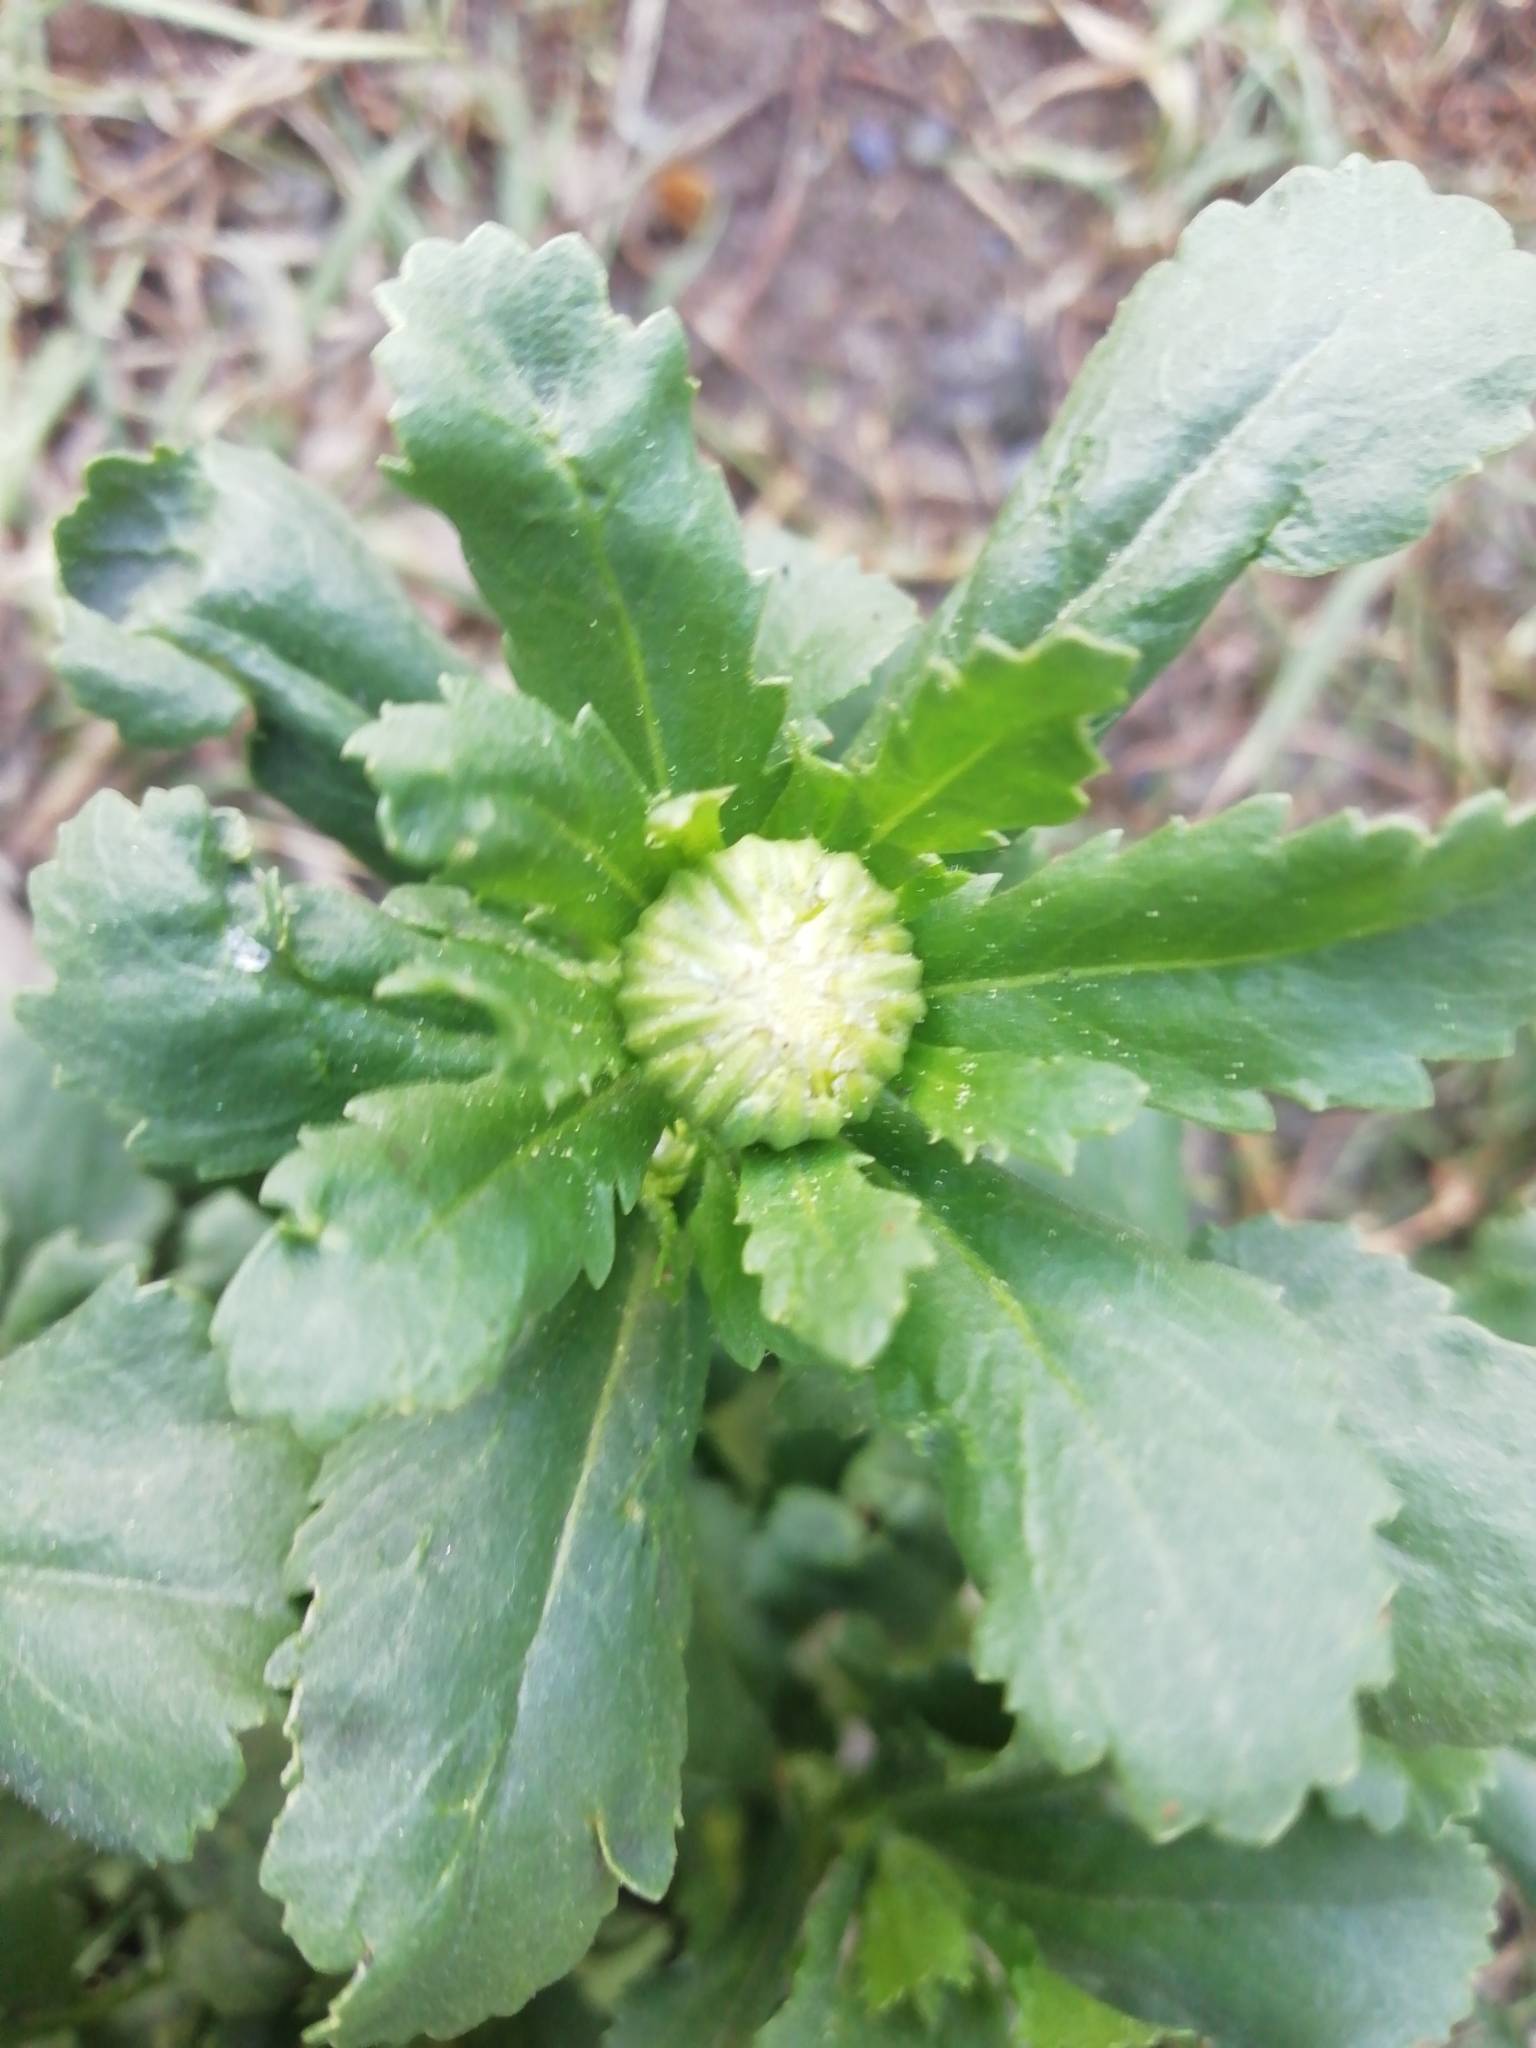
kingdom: Plantae
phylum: Tracheophyta
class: Magnoliopsida
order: Asterales
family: Asteraceae
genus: Leucanthemum
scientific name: Leucanthemum vulgare
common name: Oxeye daisy
